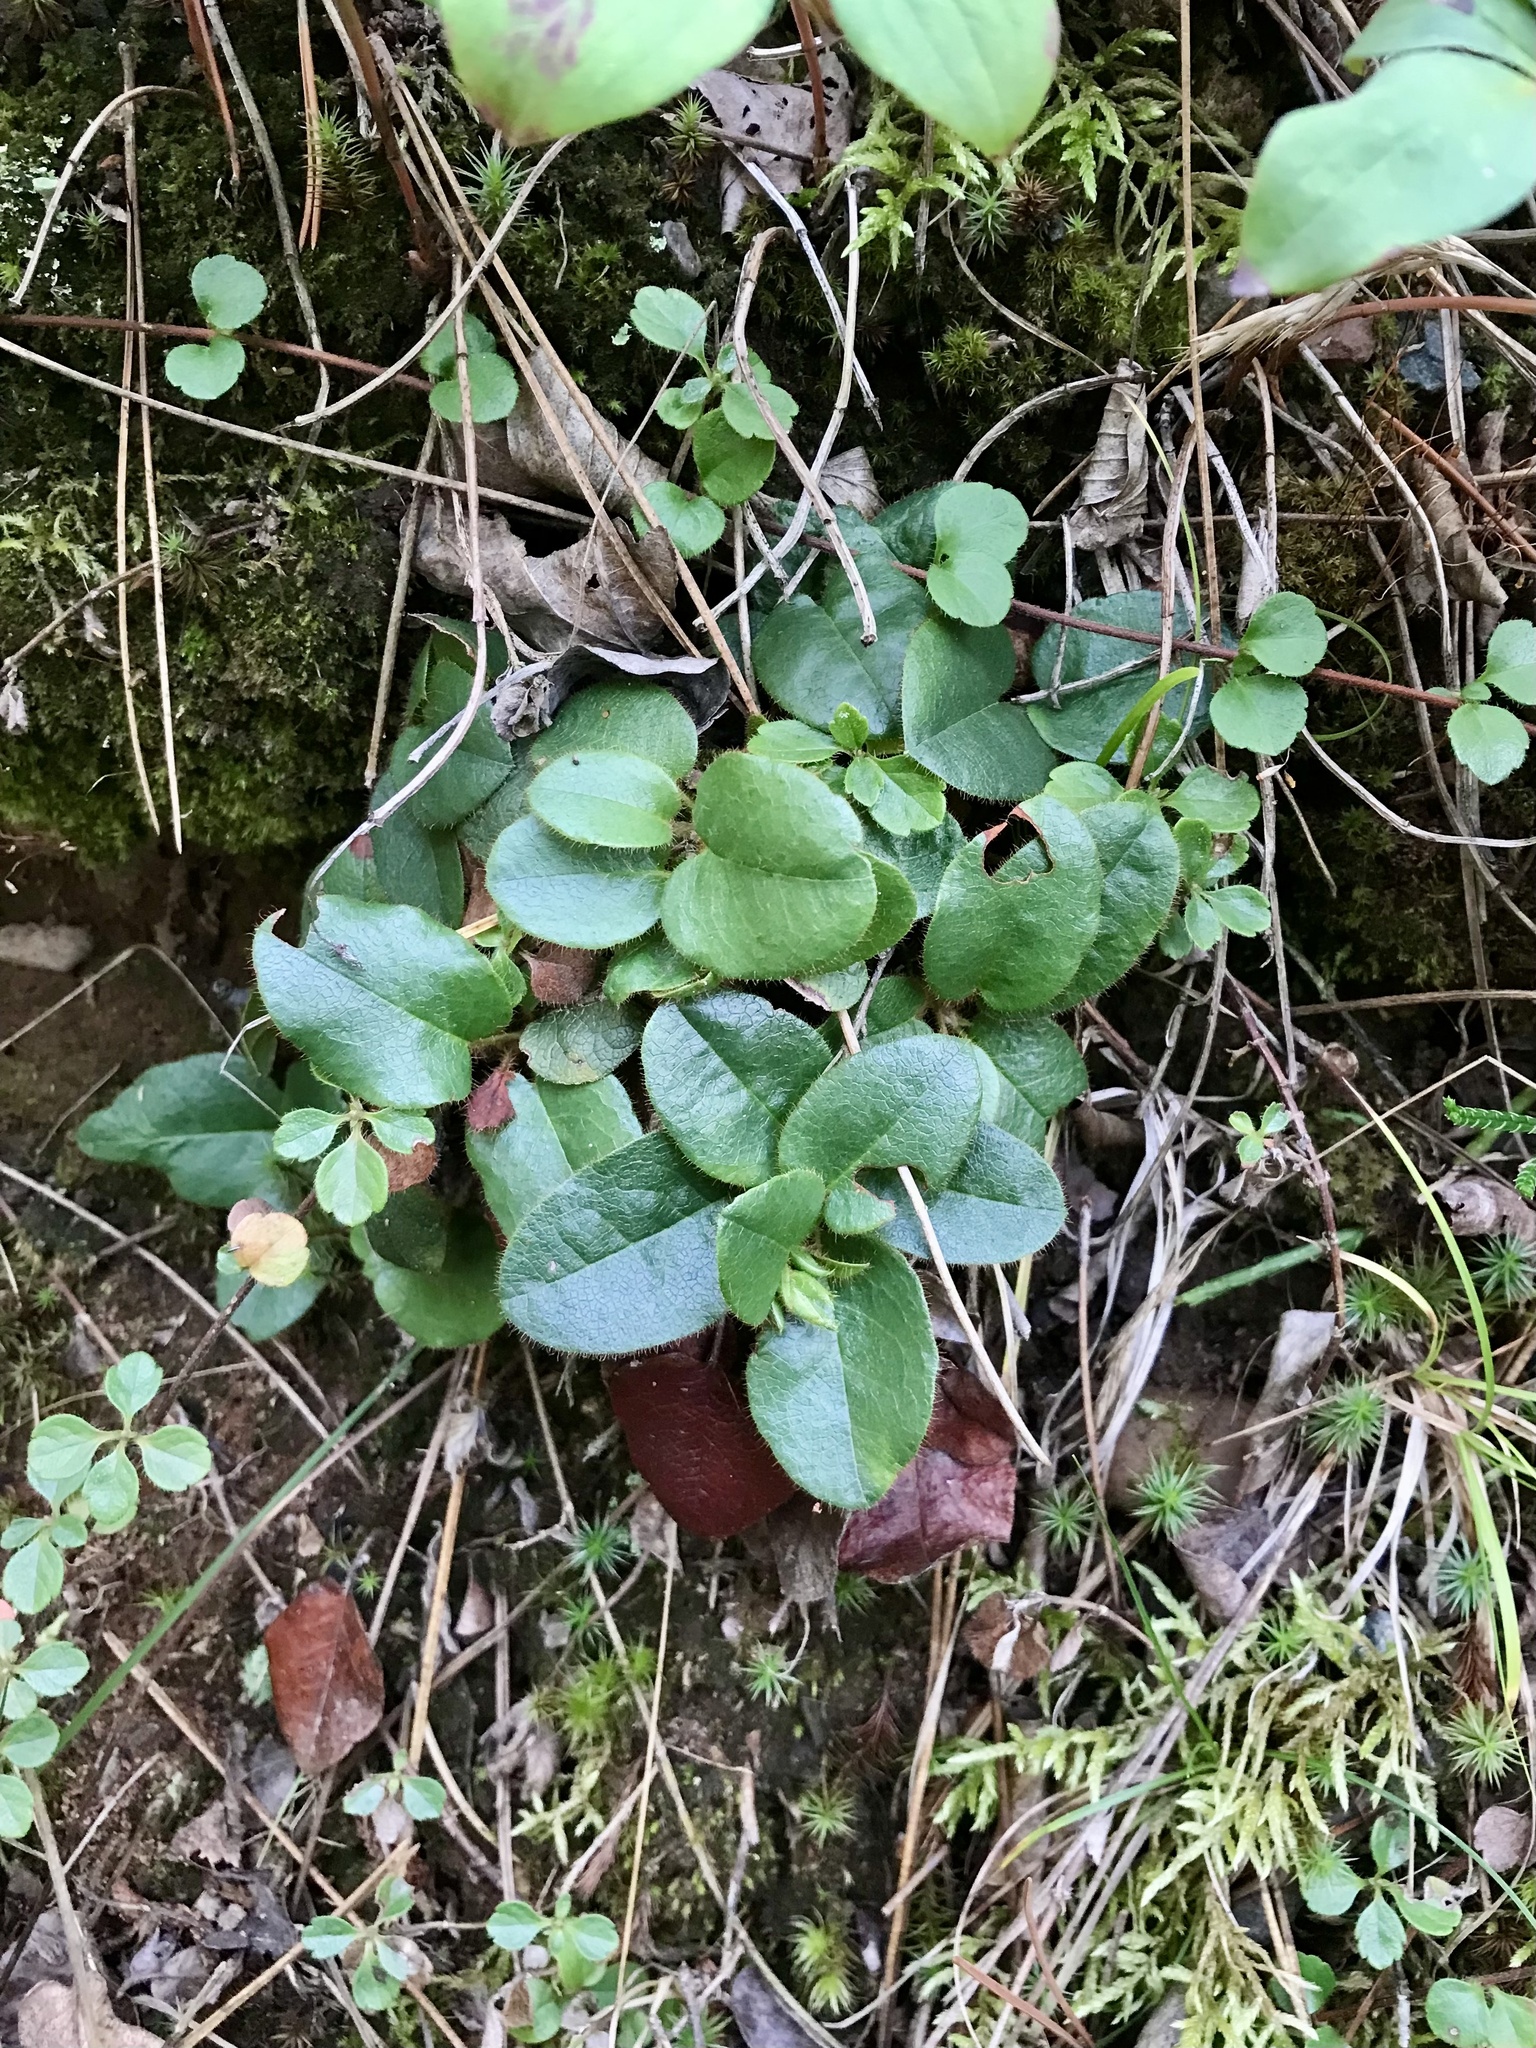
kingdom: Plantae
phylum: Tracheophyta
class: Magnoliopsida
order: Ericales
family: Ericaceae
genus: Epigaea
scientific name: Epigaea repens
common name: Gravelroot
